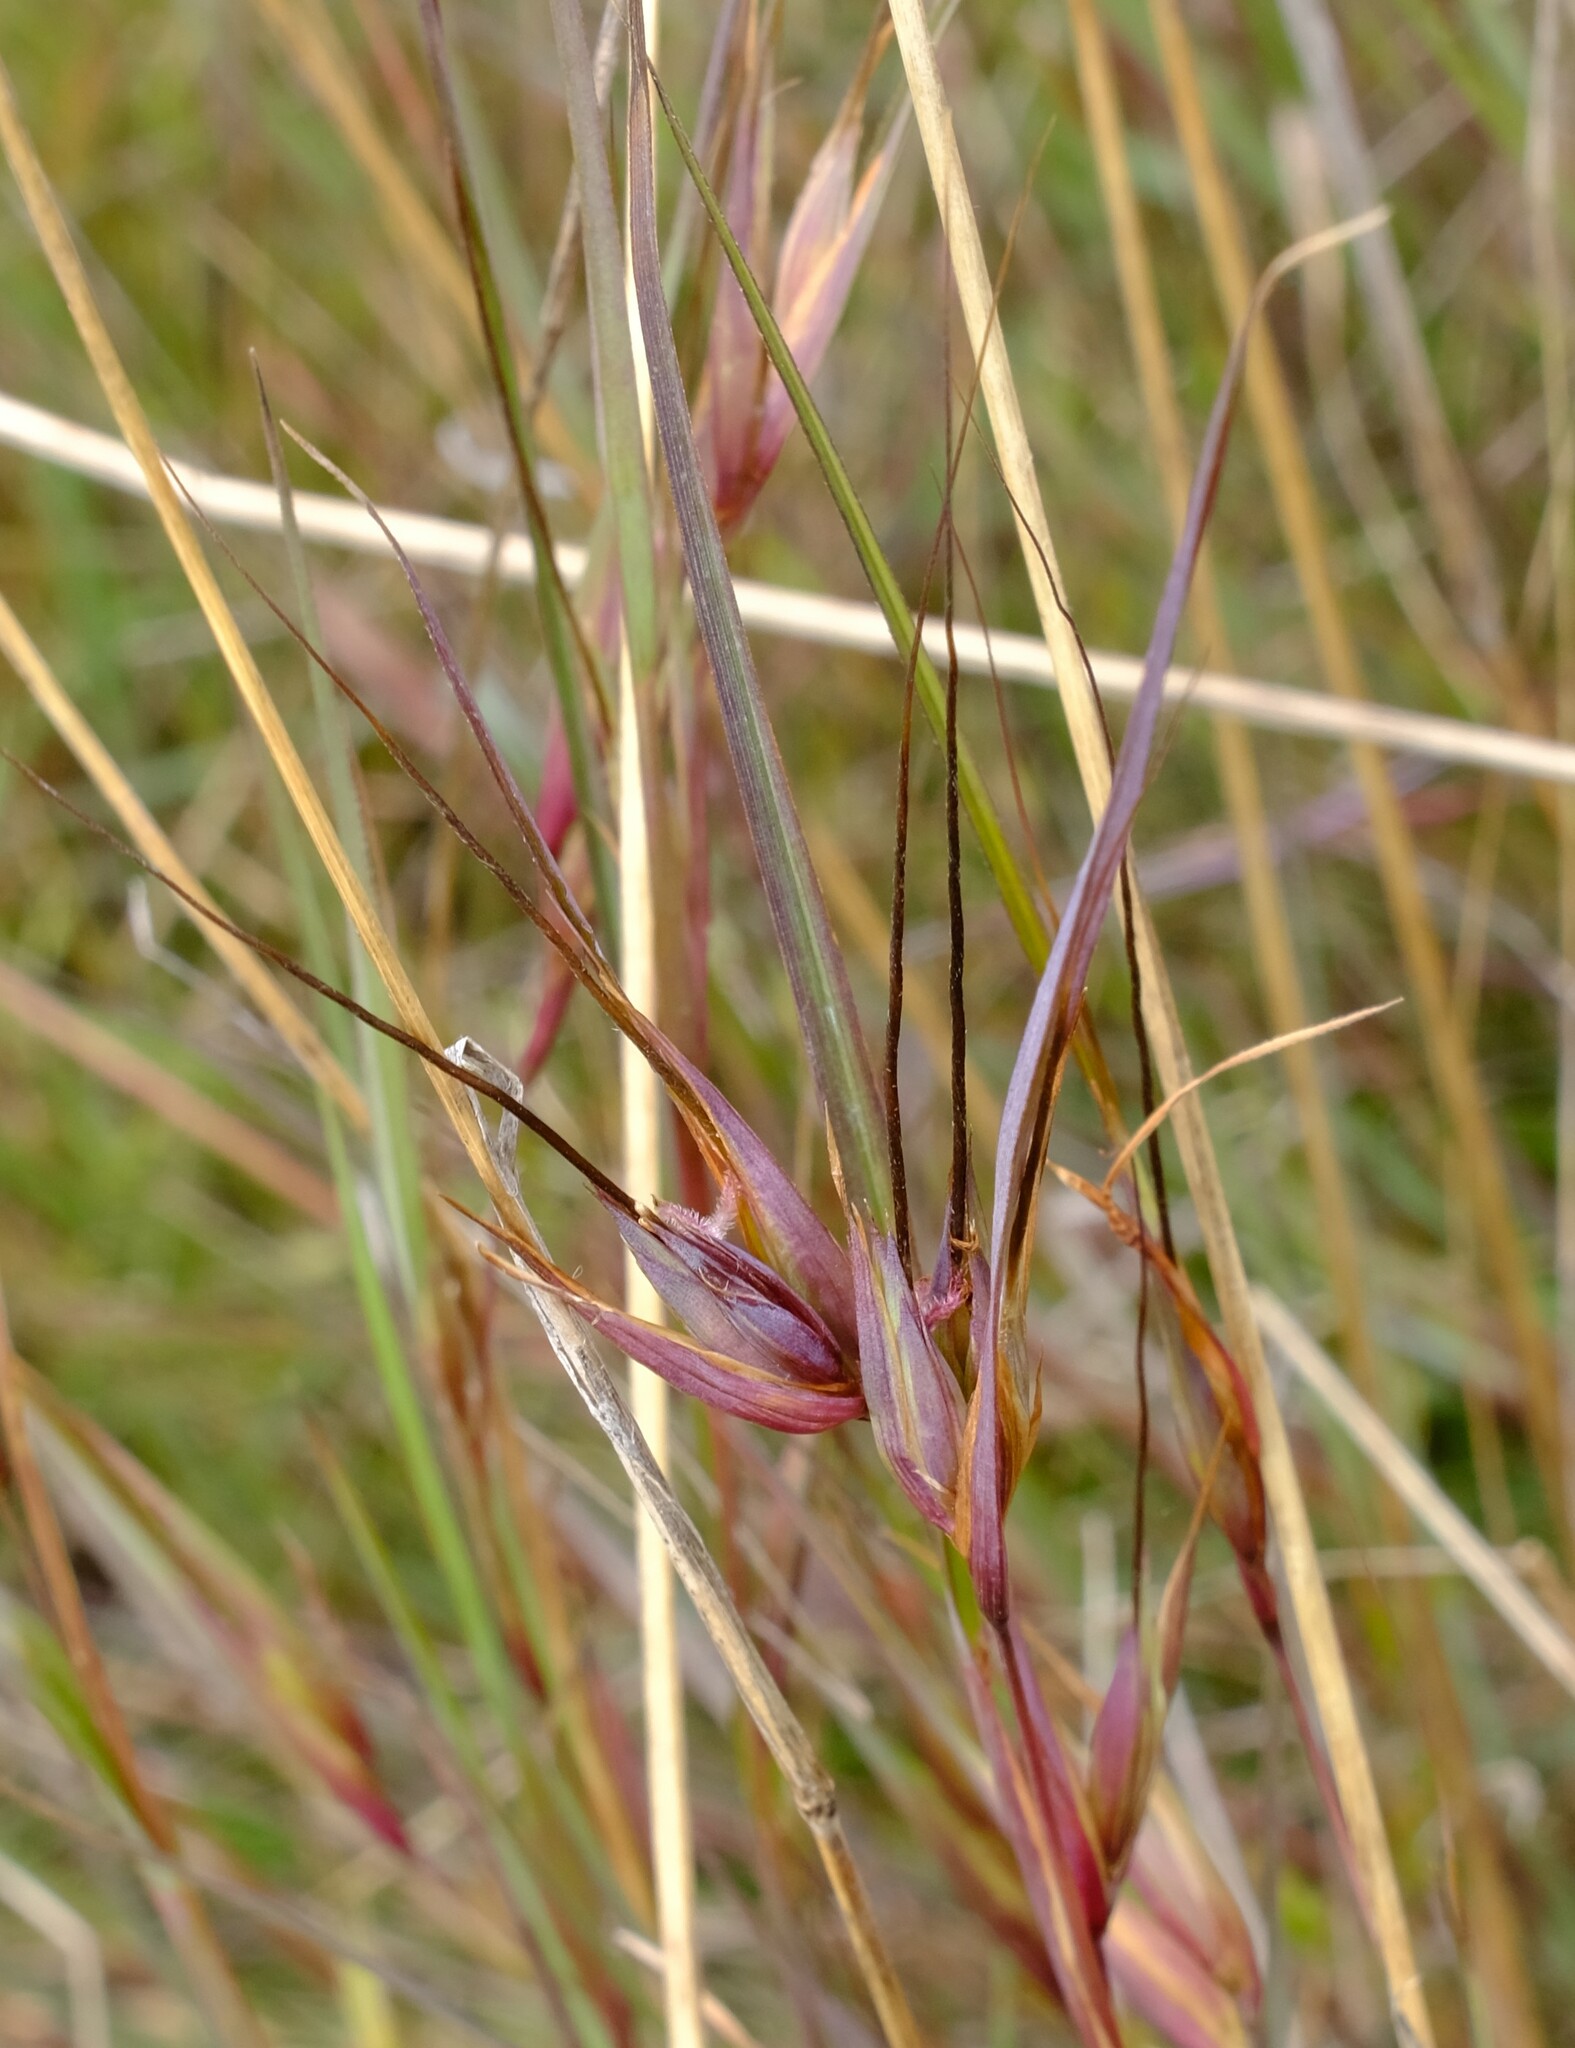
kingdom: Plantae
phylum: Tracheophyta
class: Liliopsida
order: Poales
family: Poaceae
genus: Themeda
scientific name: Themeda triandra
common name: Kangaroo grass
